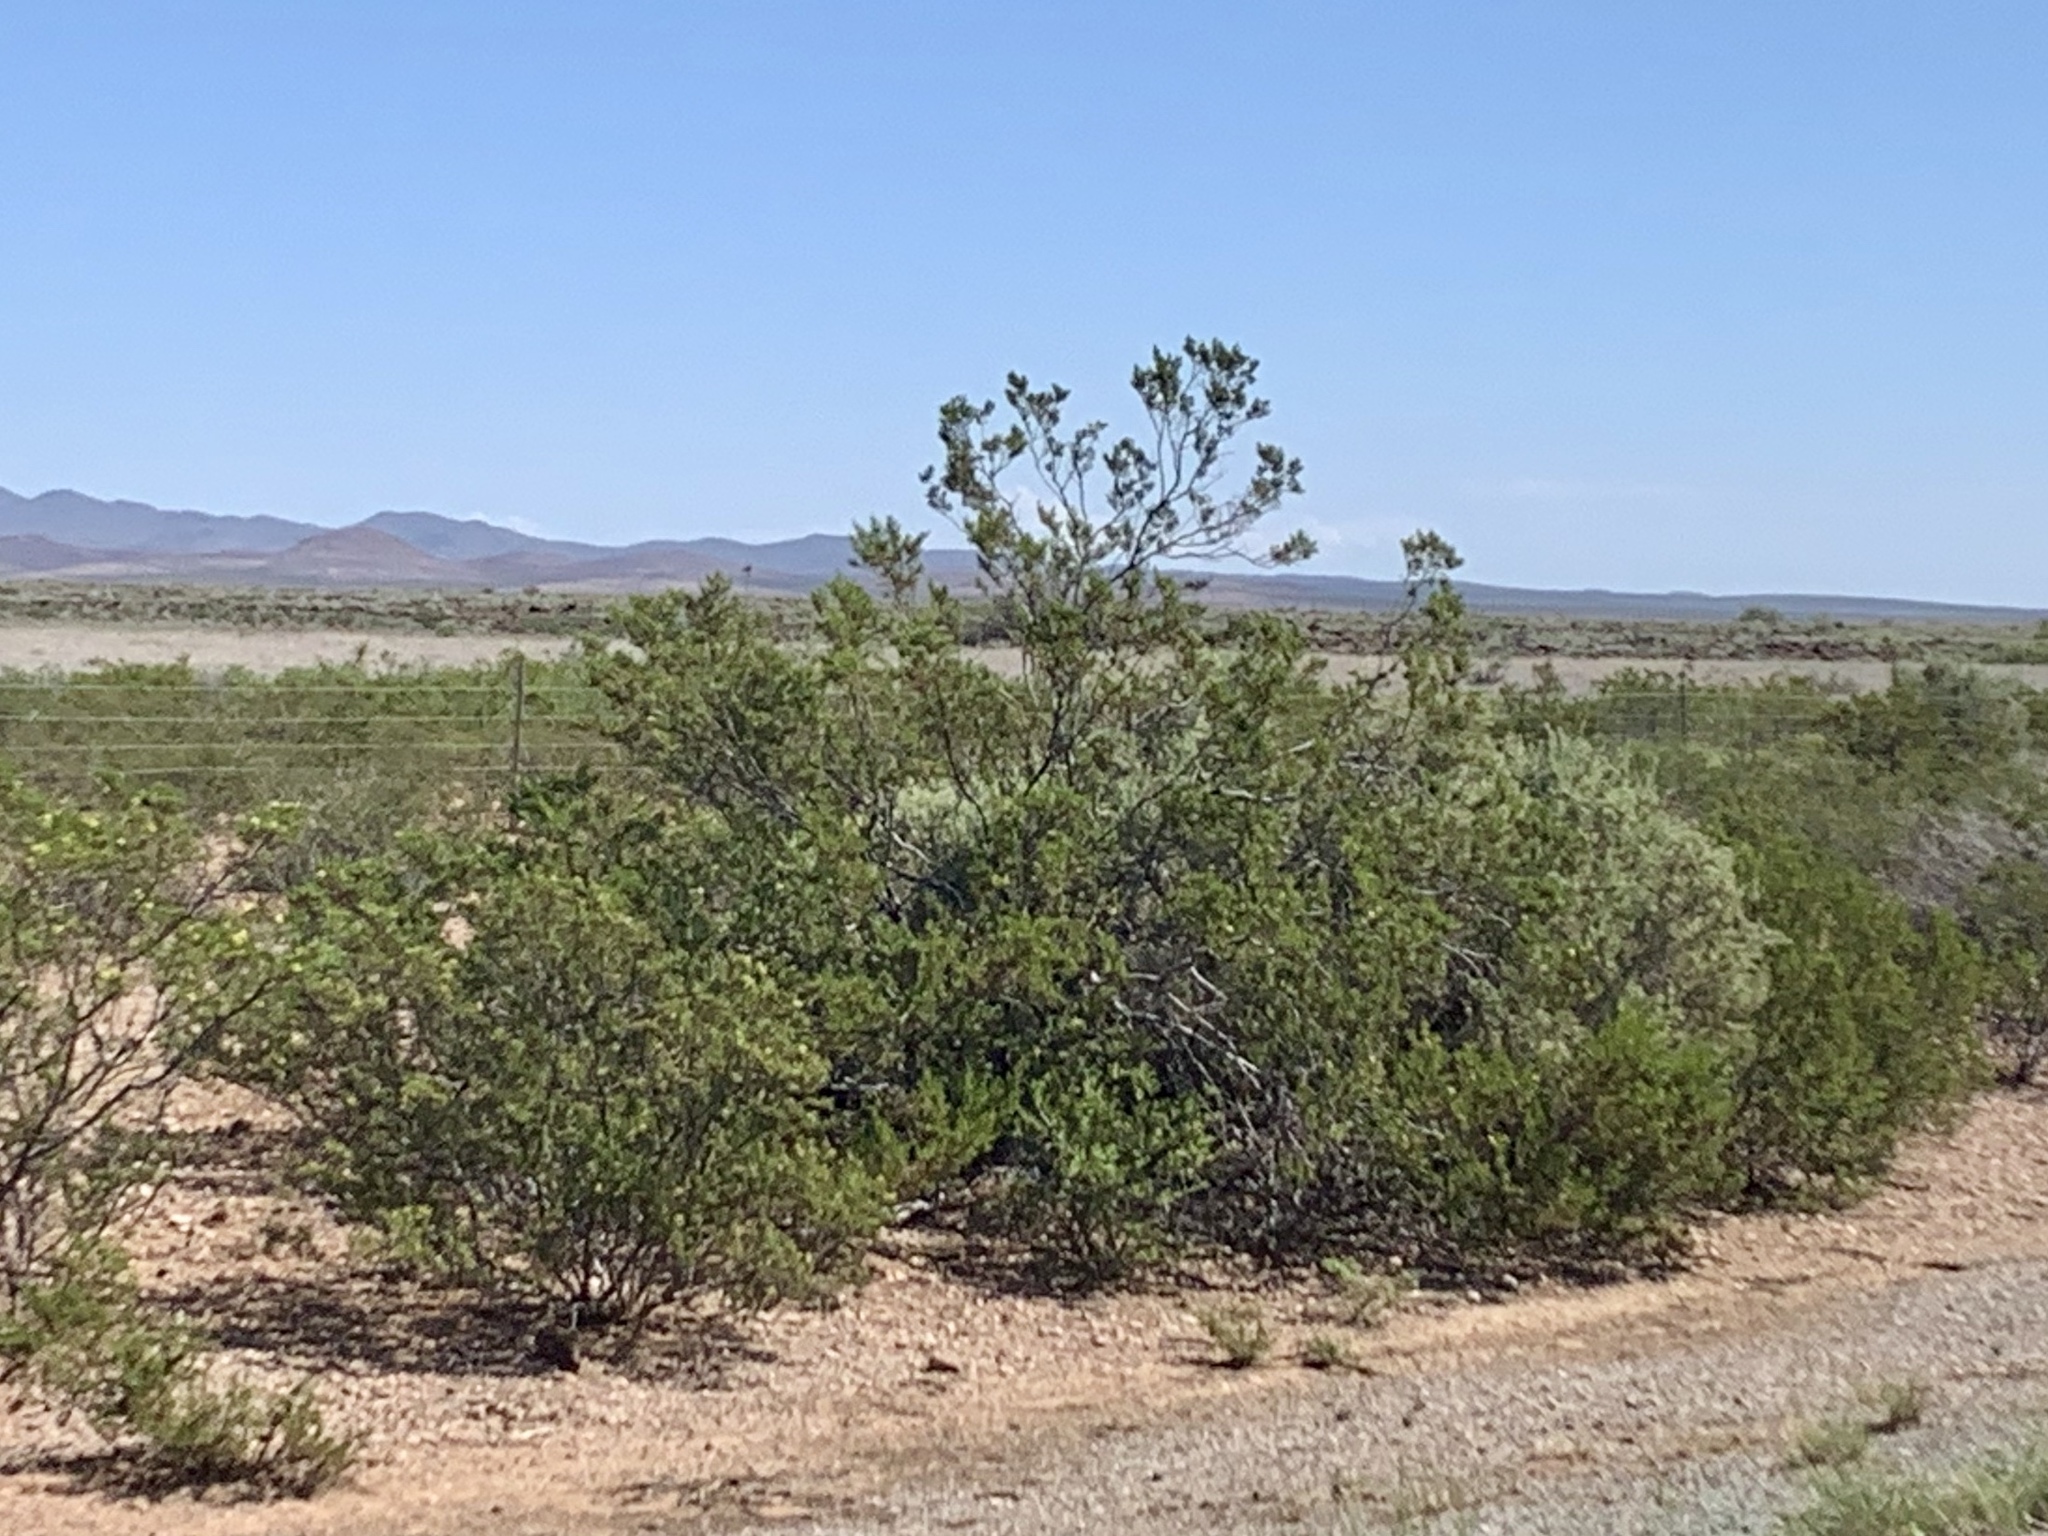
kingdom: Plantae
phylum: Tracheophyta
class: Magnoliopsida
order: Zygophyllales
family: Zygophyllaceae
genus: Larrea
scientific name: Larrea tridentata
